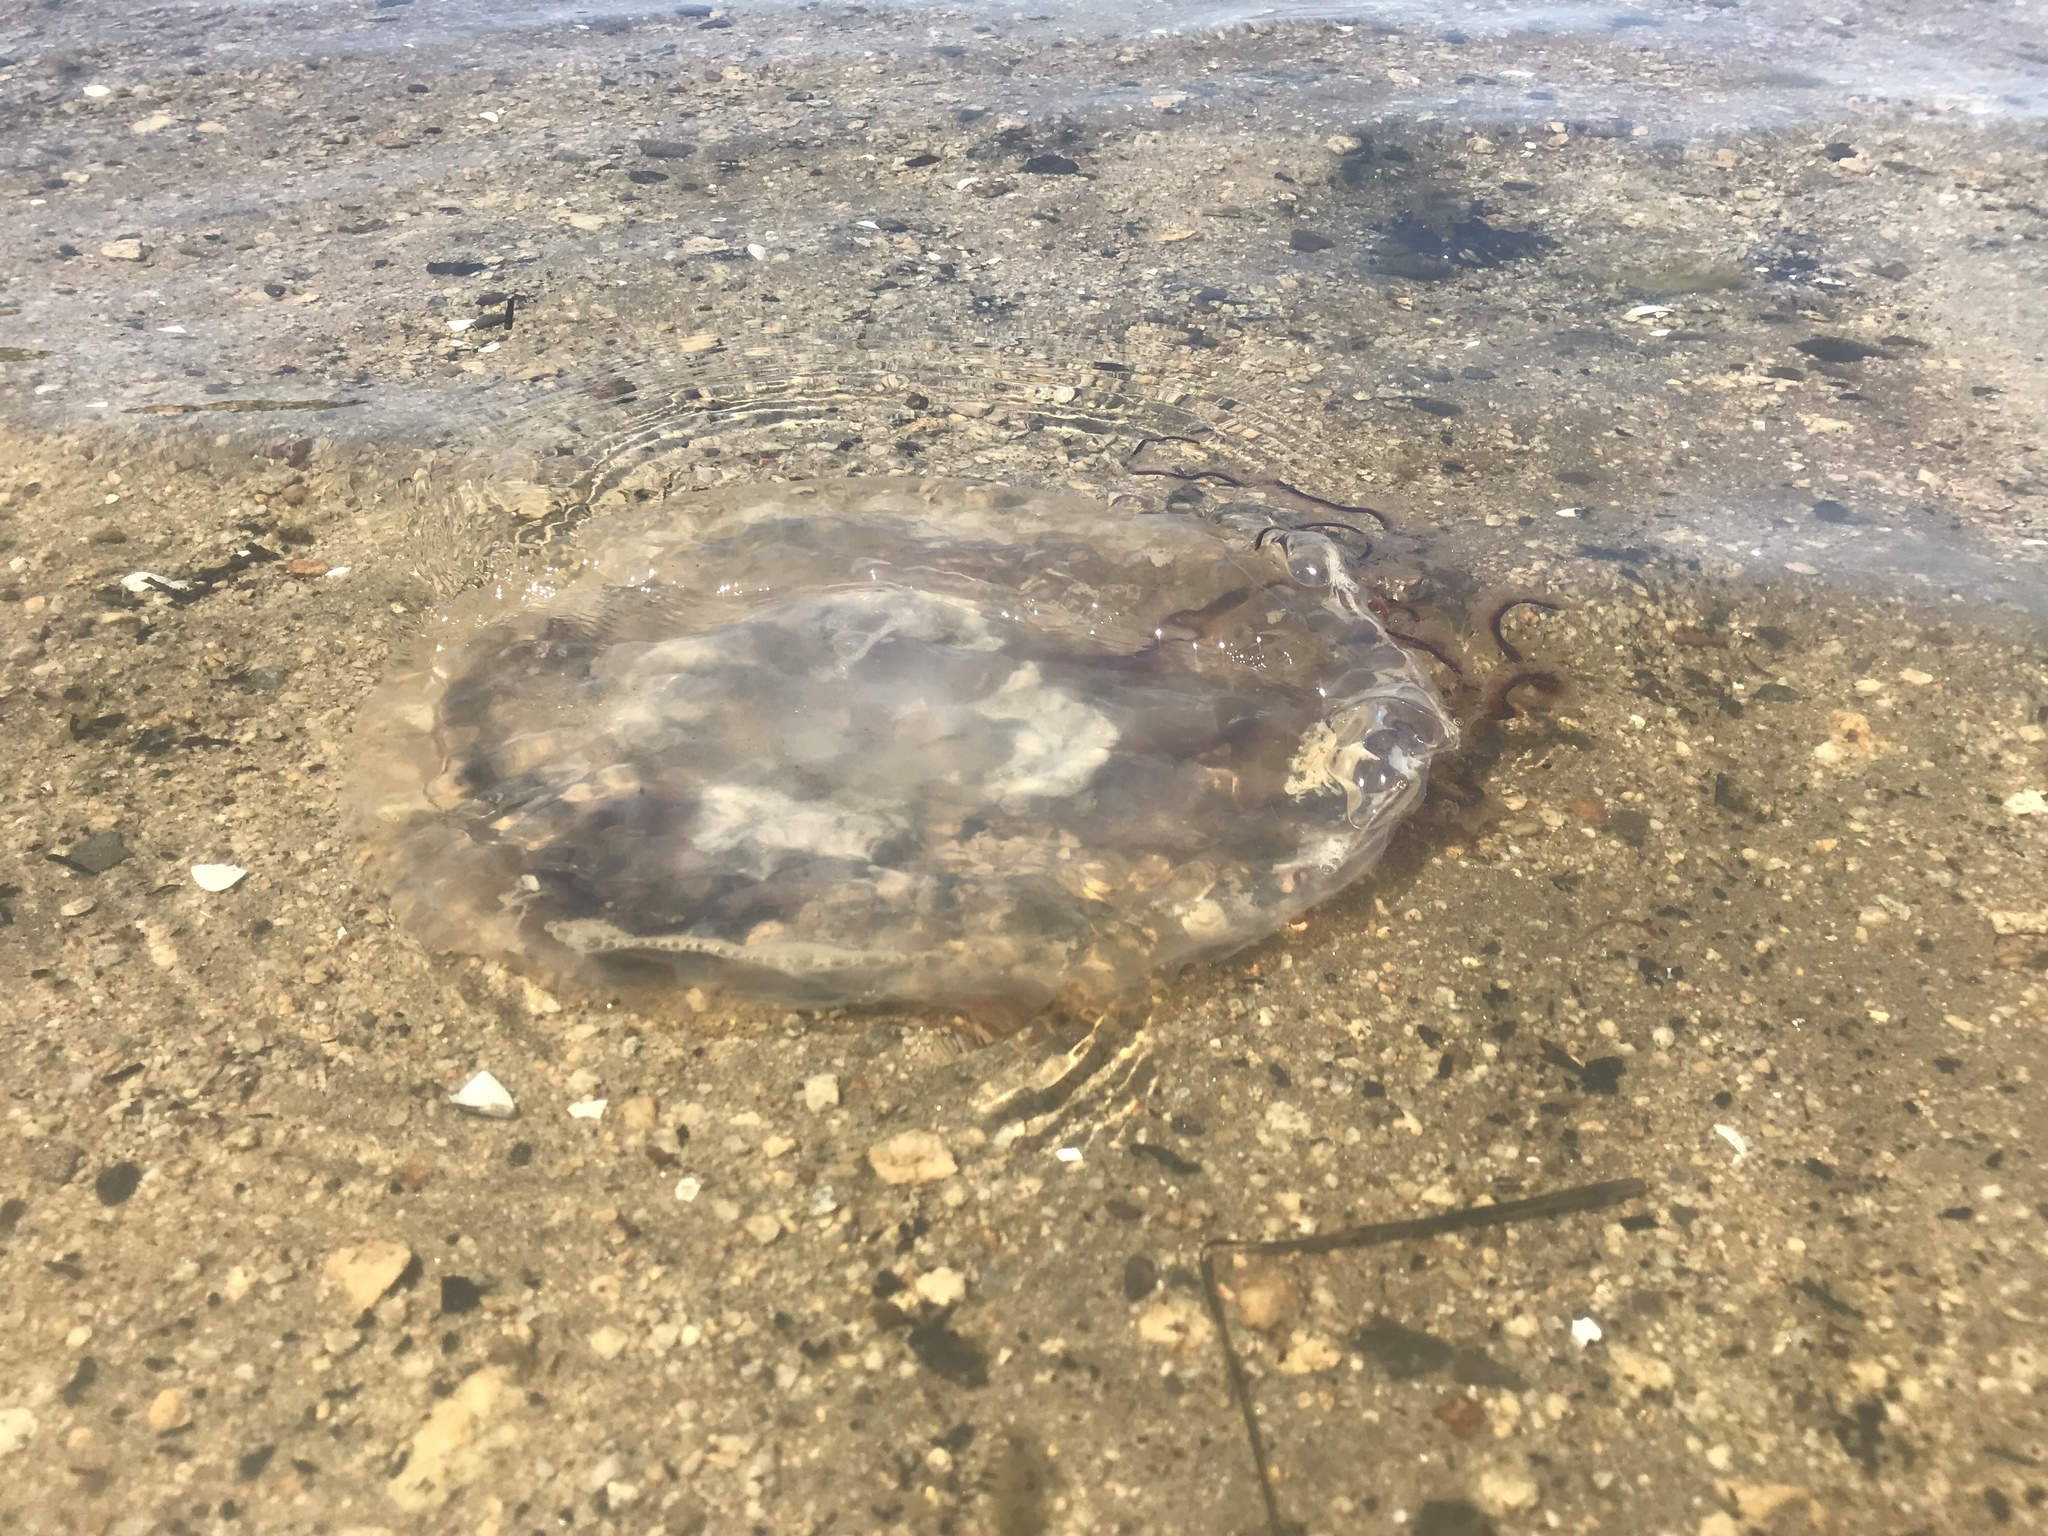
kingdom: Animalia
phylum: Cnidaria
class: Scyphozoa
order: Semaeostomeae
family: Pelagiidae
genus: Chrysaora
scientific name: Chrysaora fuscescens
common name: Sea nettle
